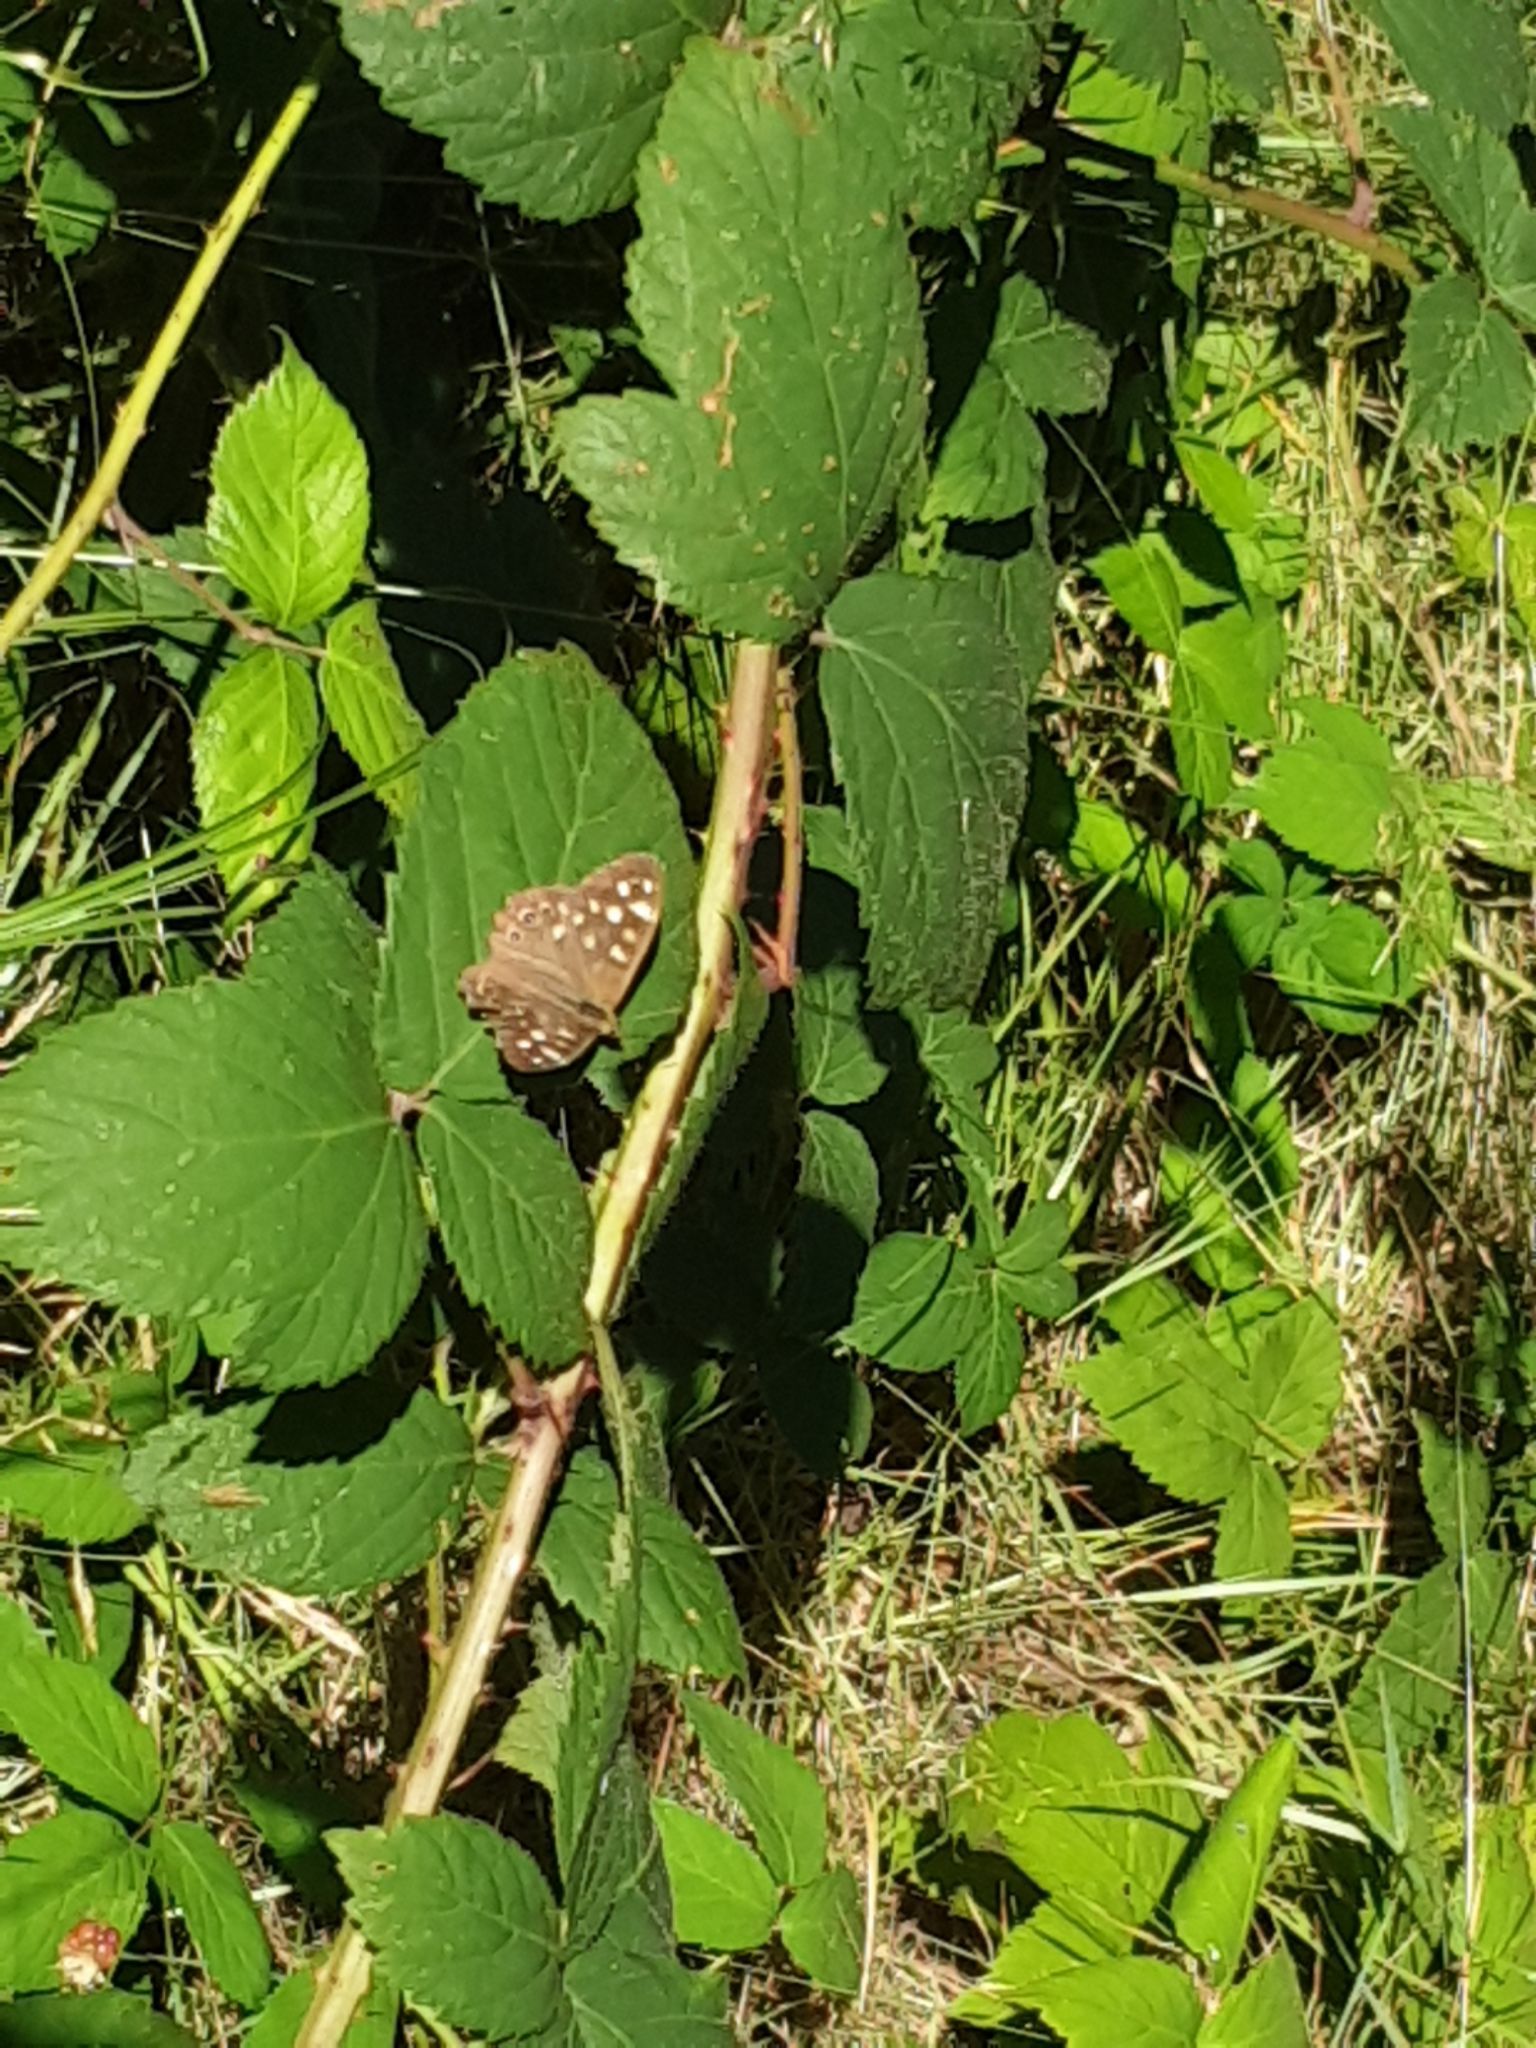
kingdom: Animalia
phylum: Arthropoda
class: Insecta
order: Lepidoptera
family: Nymphalidae
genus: Pararge
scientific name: Pararge aegeria
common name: Speckled wood
